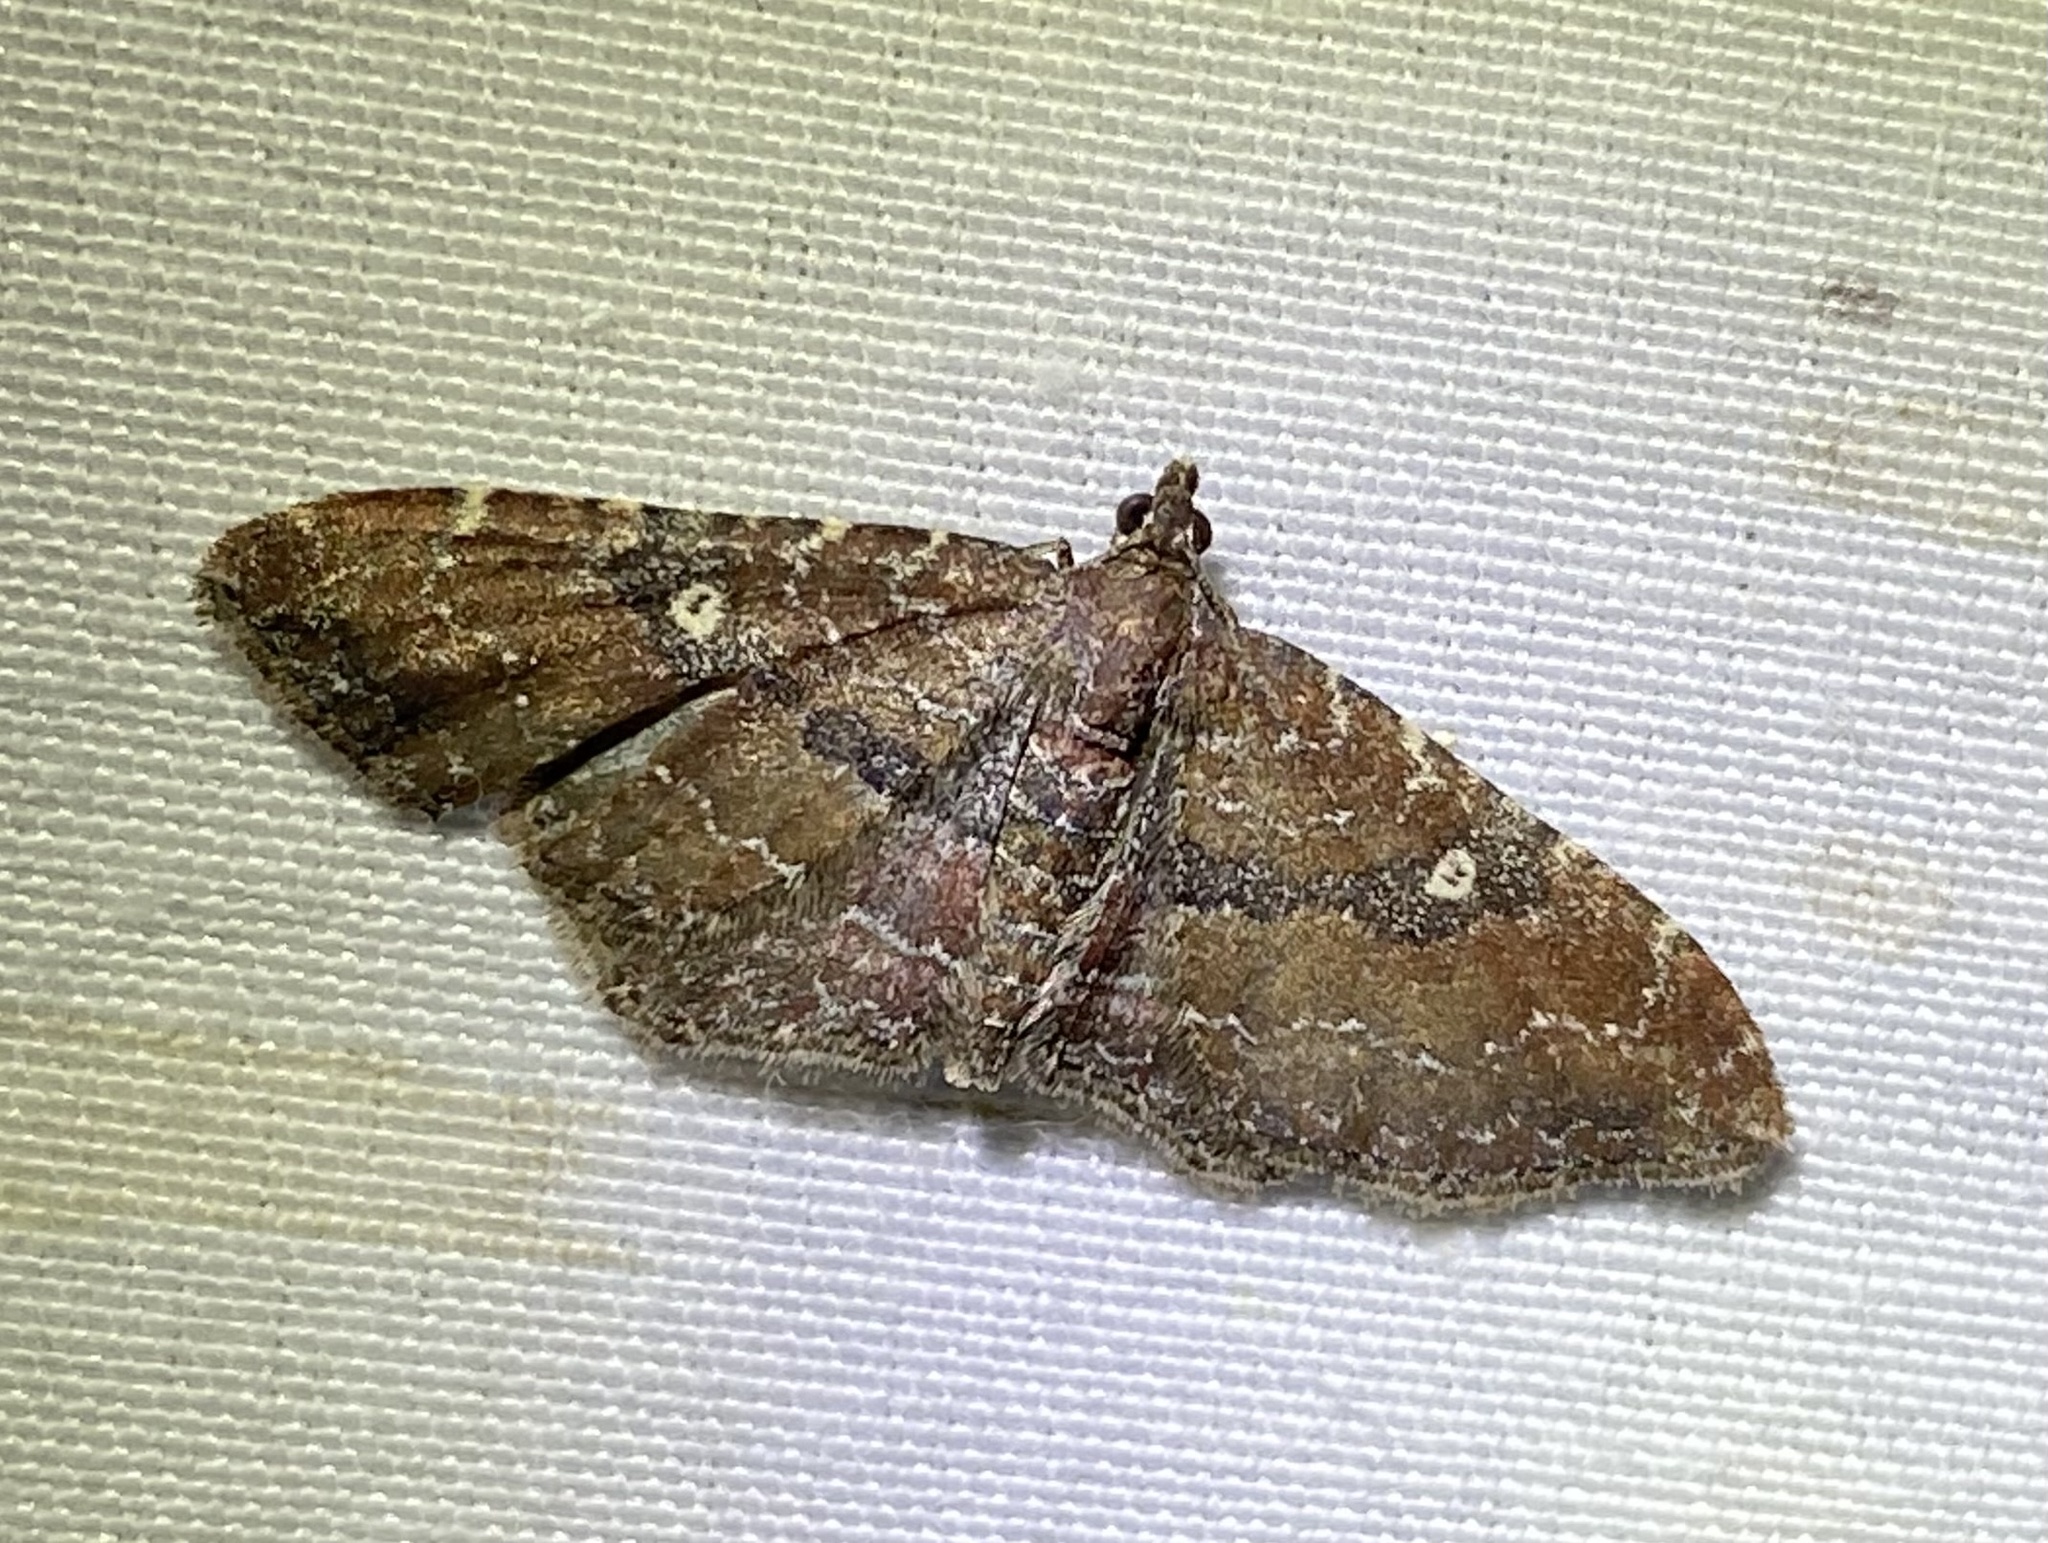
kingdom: Animalia
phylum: Arthropoda
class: Insecta
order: Lepidoptera
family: Geometridae
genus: Orthonama
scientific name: Orthonama obstipata
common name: The gem
